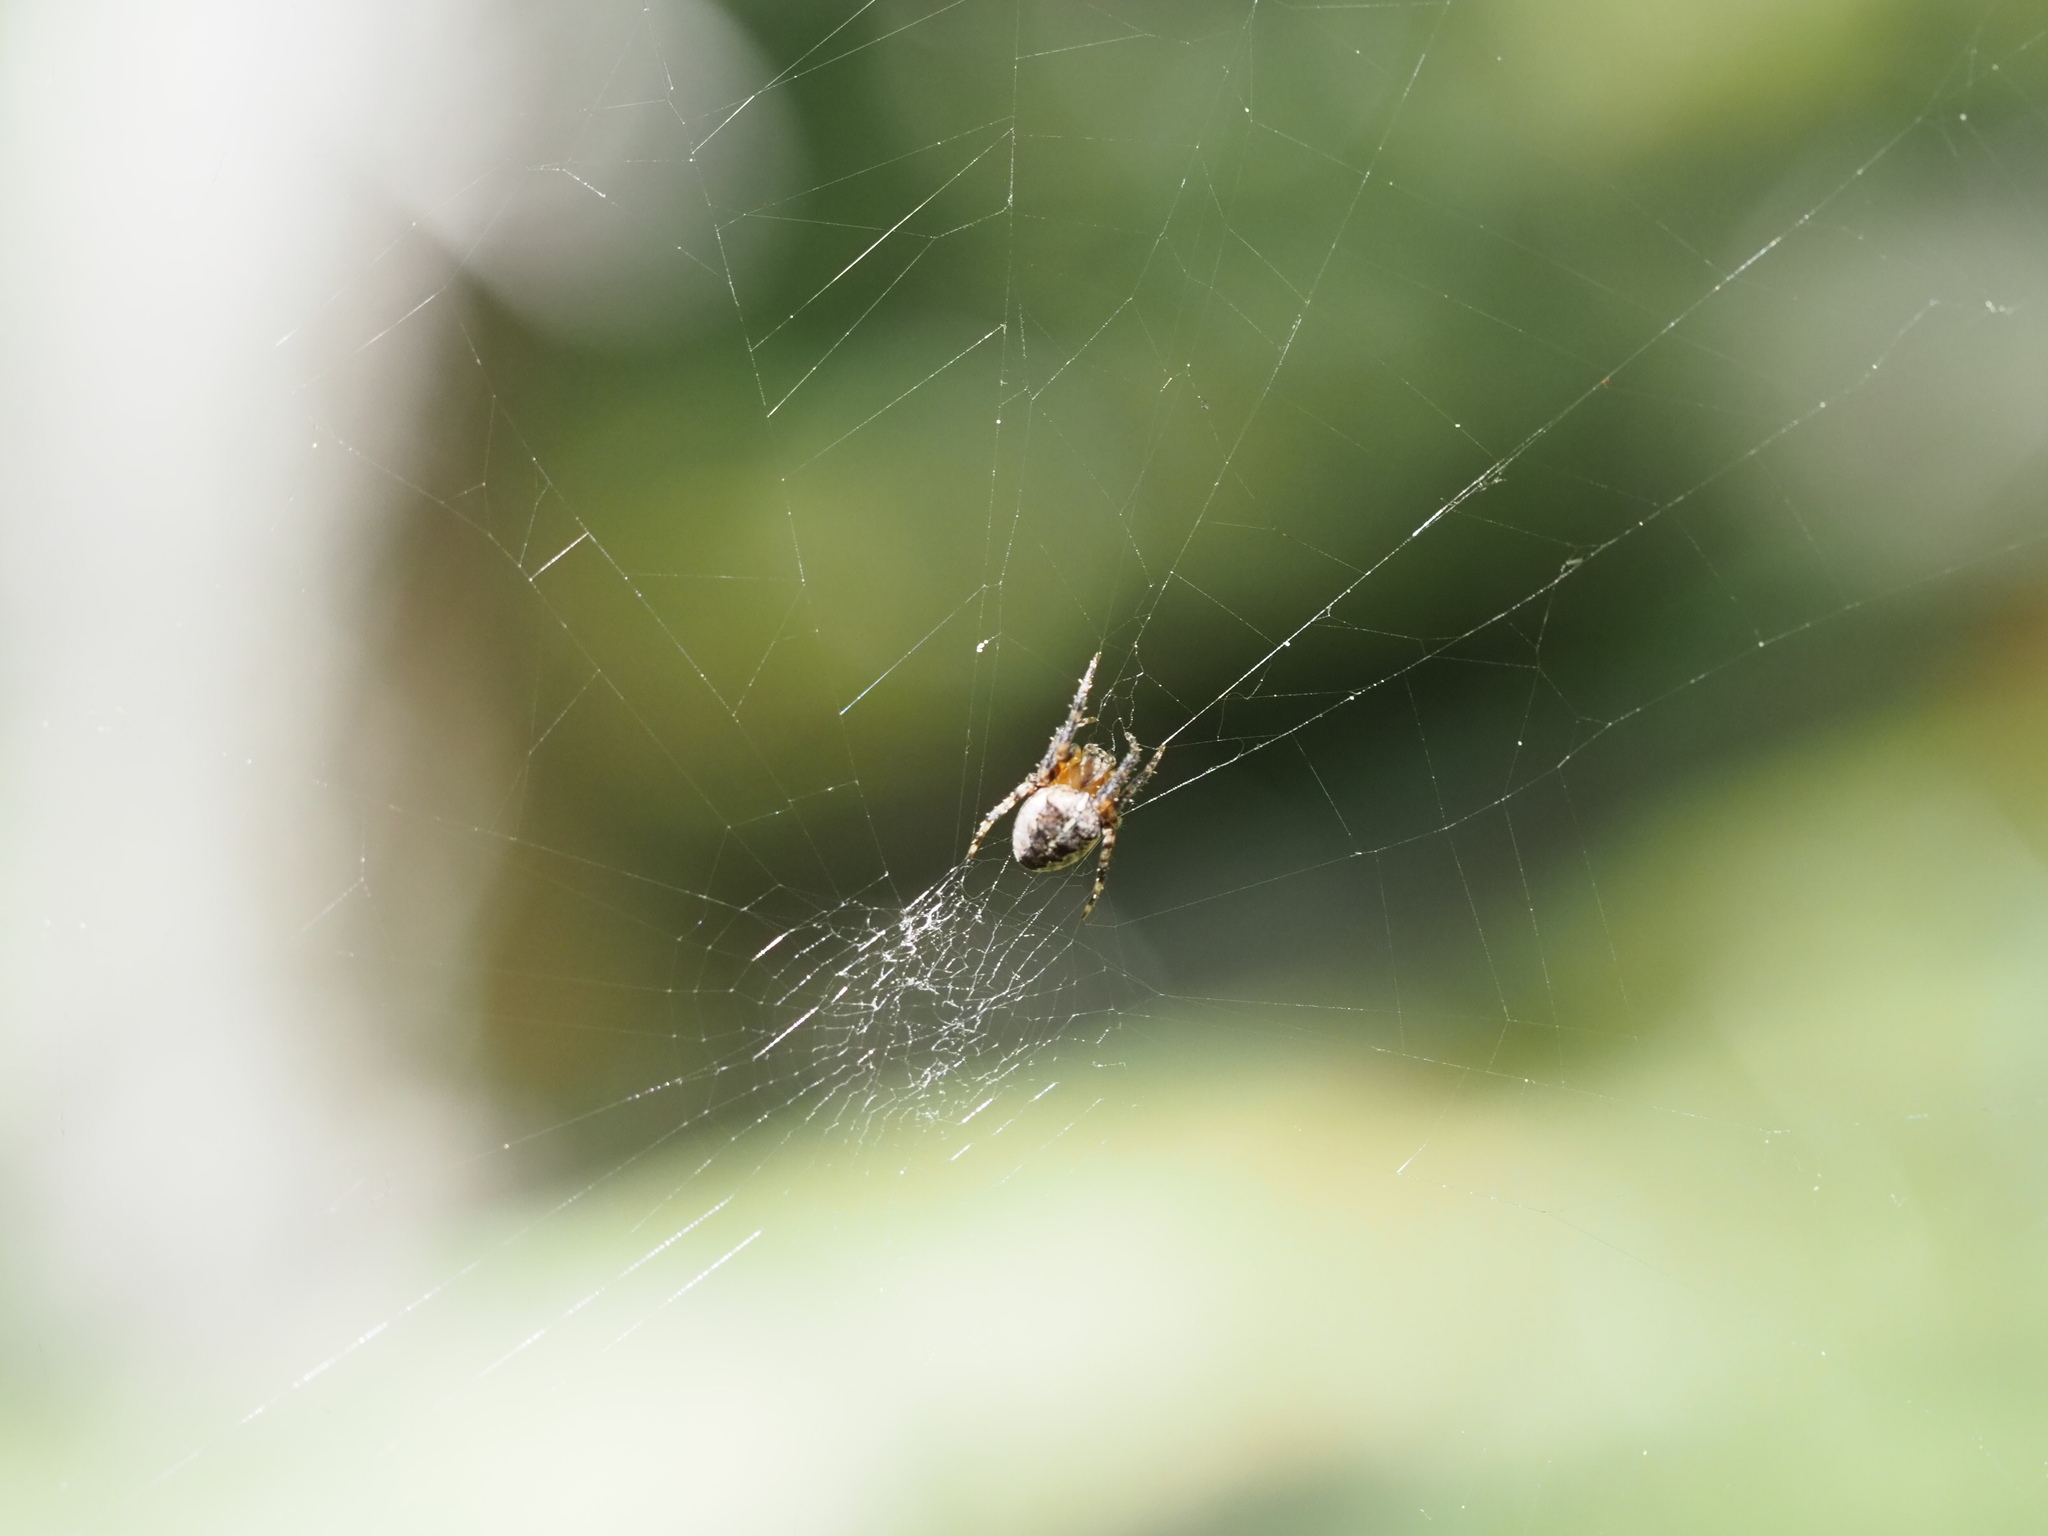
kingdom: Animalia
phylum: Arthropoda
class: Arachnida
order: Araneae
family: Araneidae
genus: Araneus
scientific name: Araneus diadematus
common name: Cross orbweaver
